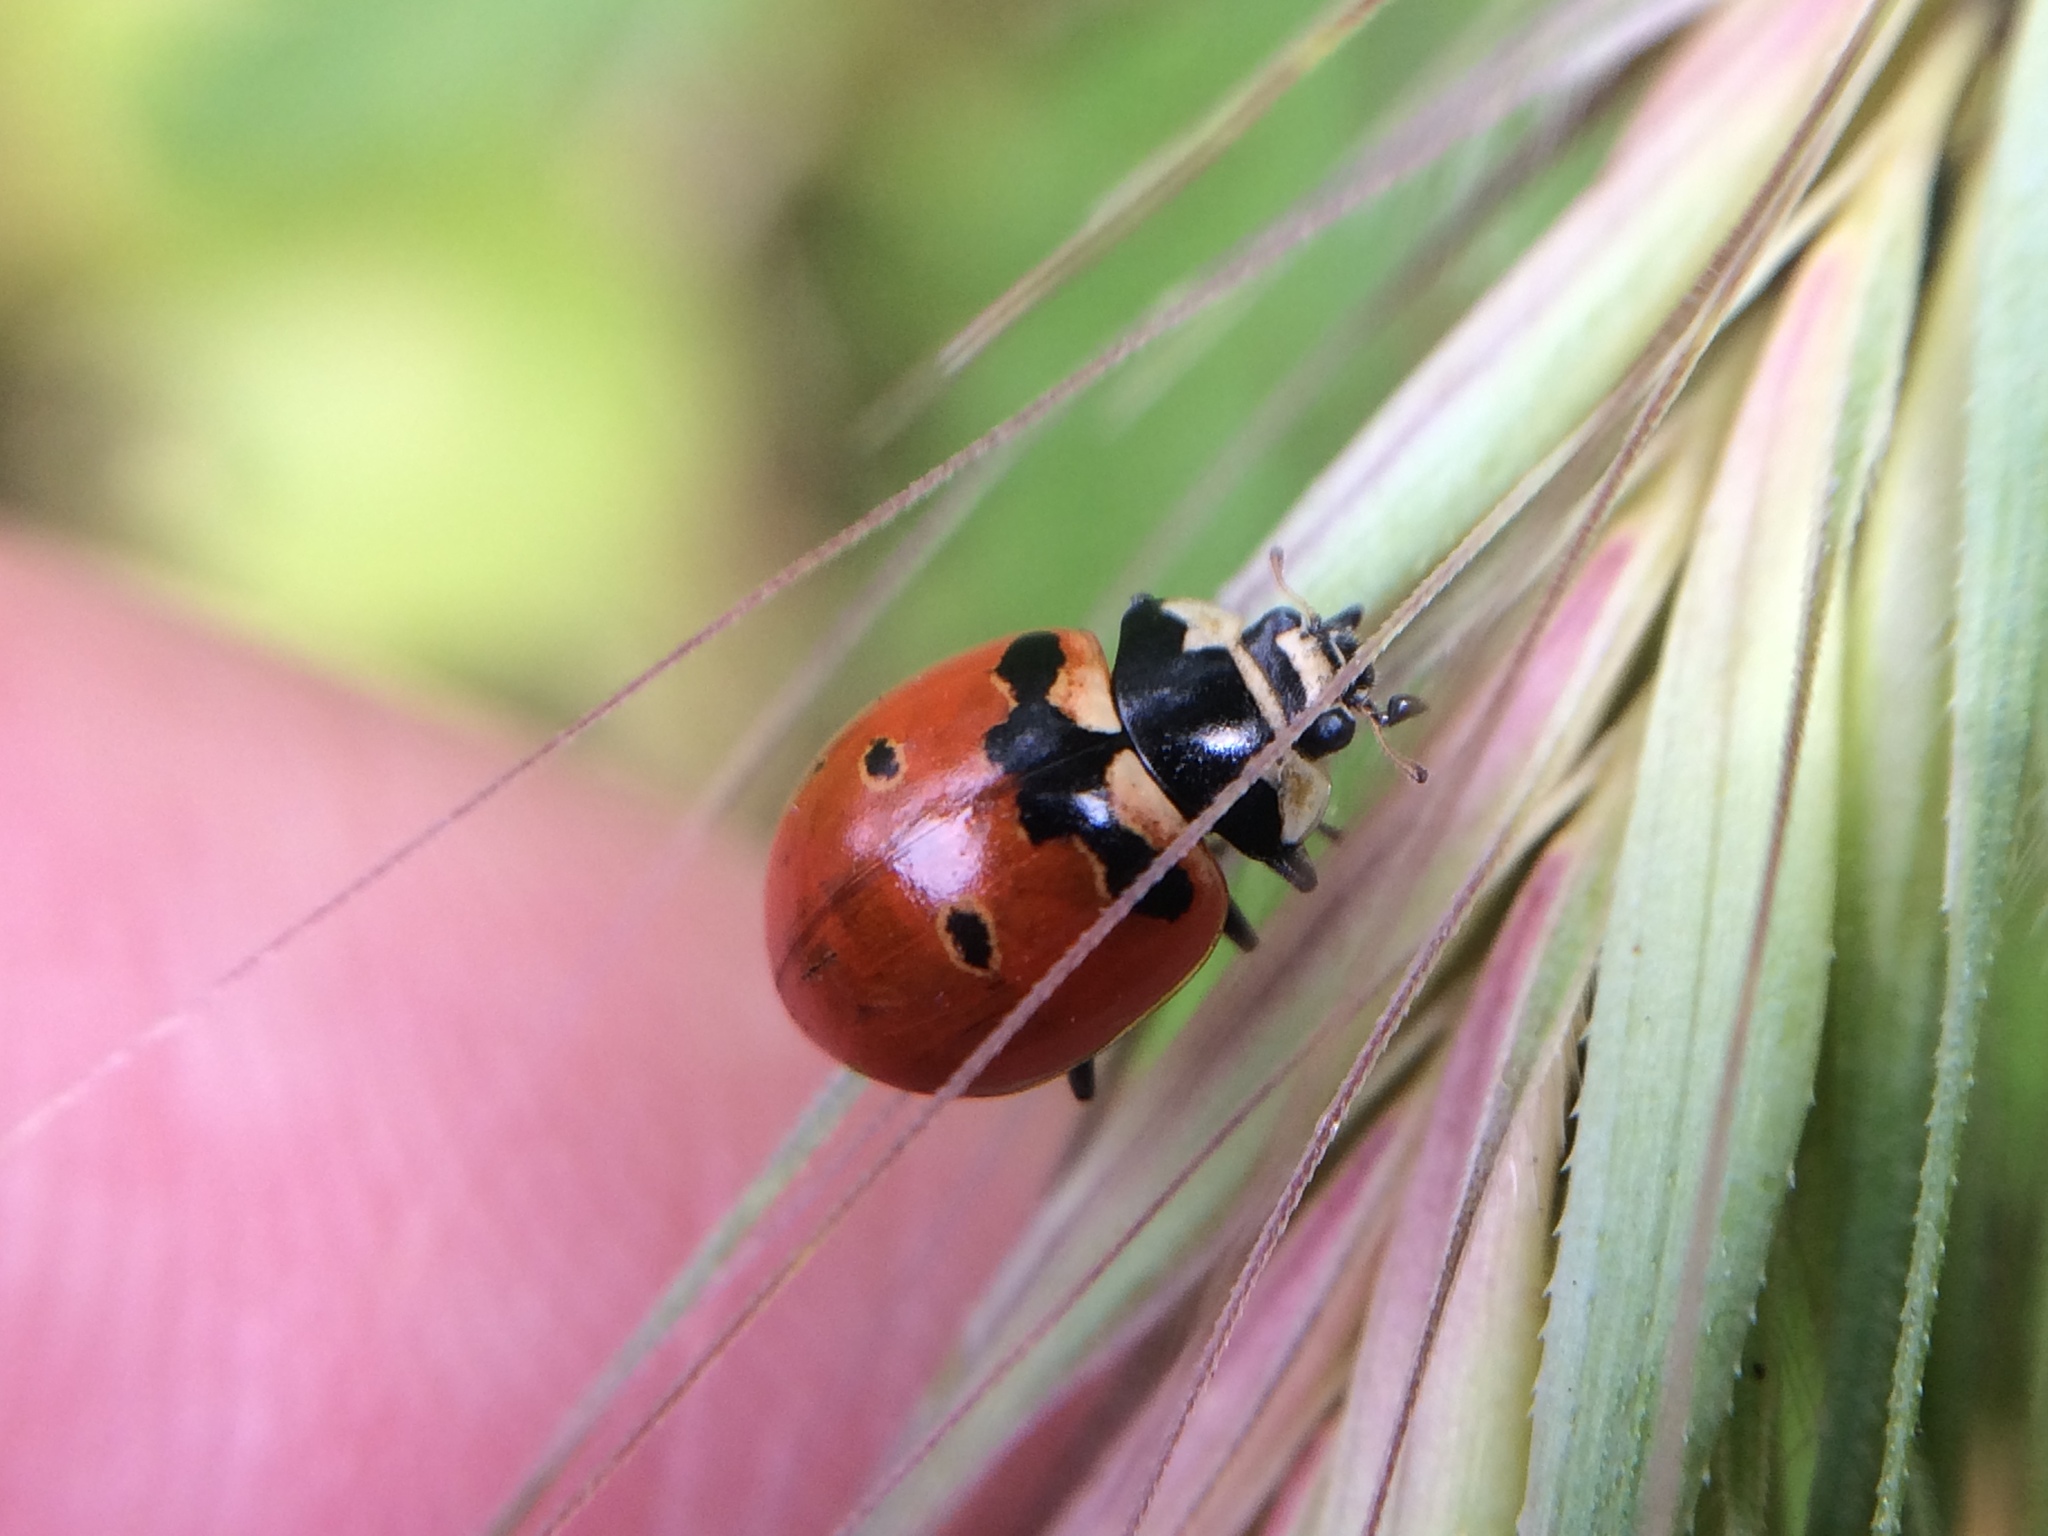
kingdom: Animalia
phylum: Arthropoda
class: Insecta
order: Coleoptera
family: Coccinellidae
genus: Coccinella
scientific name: Coccinella trifasciata
